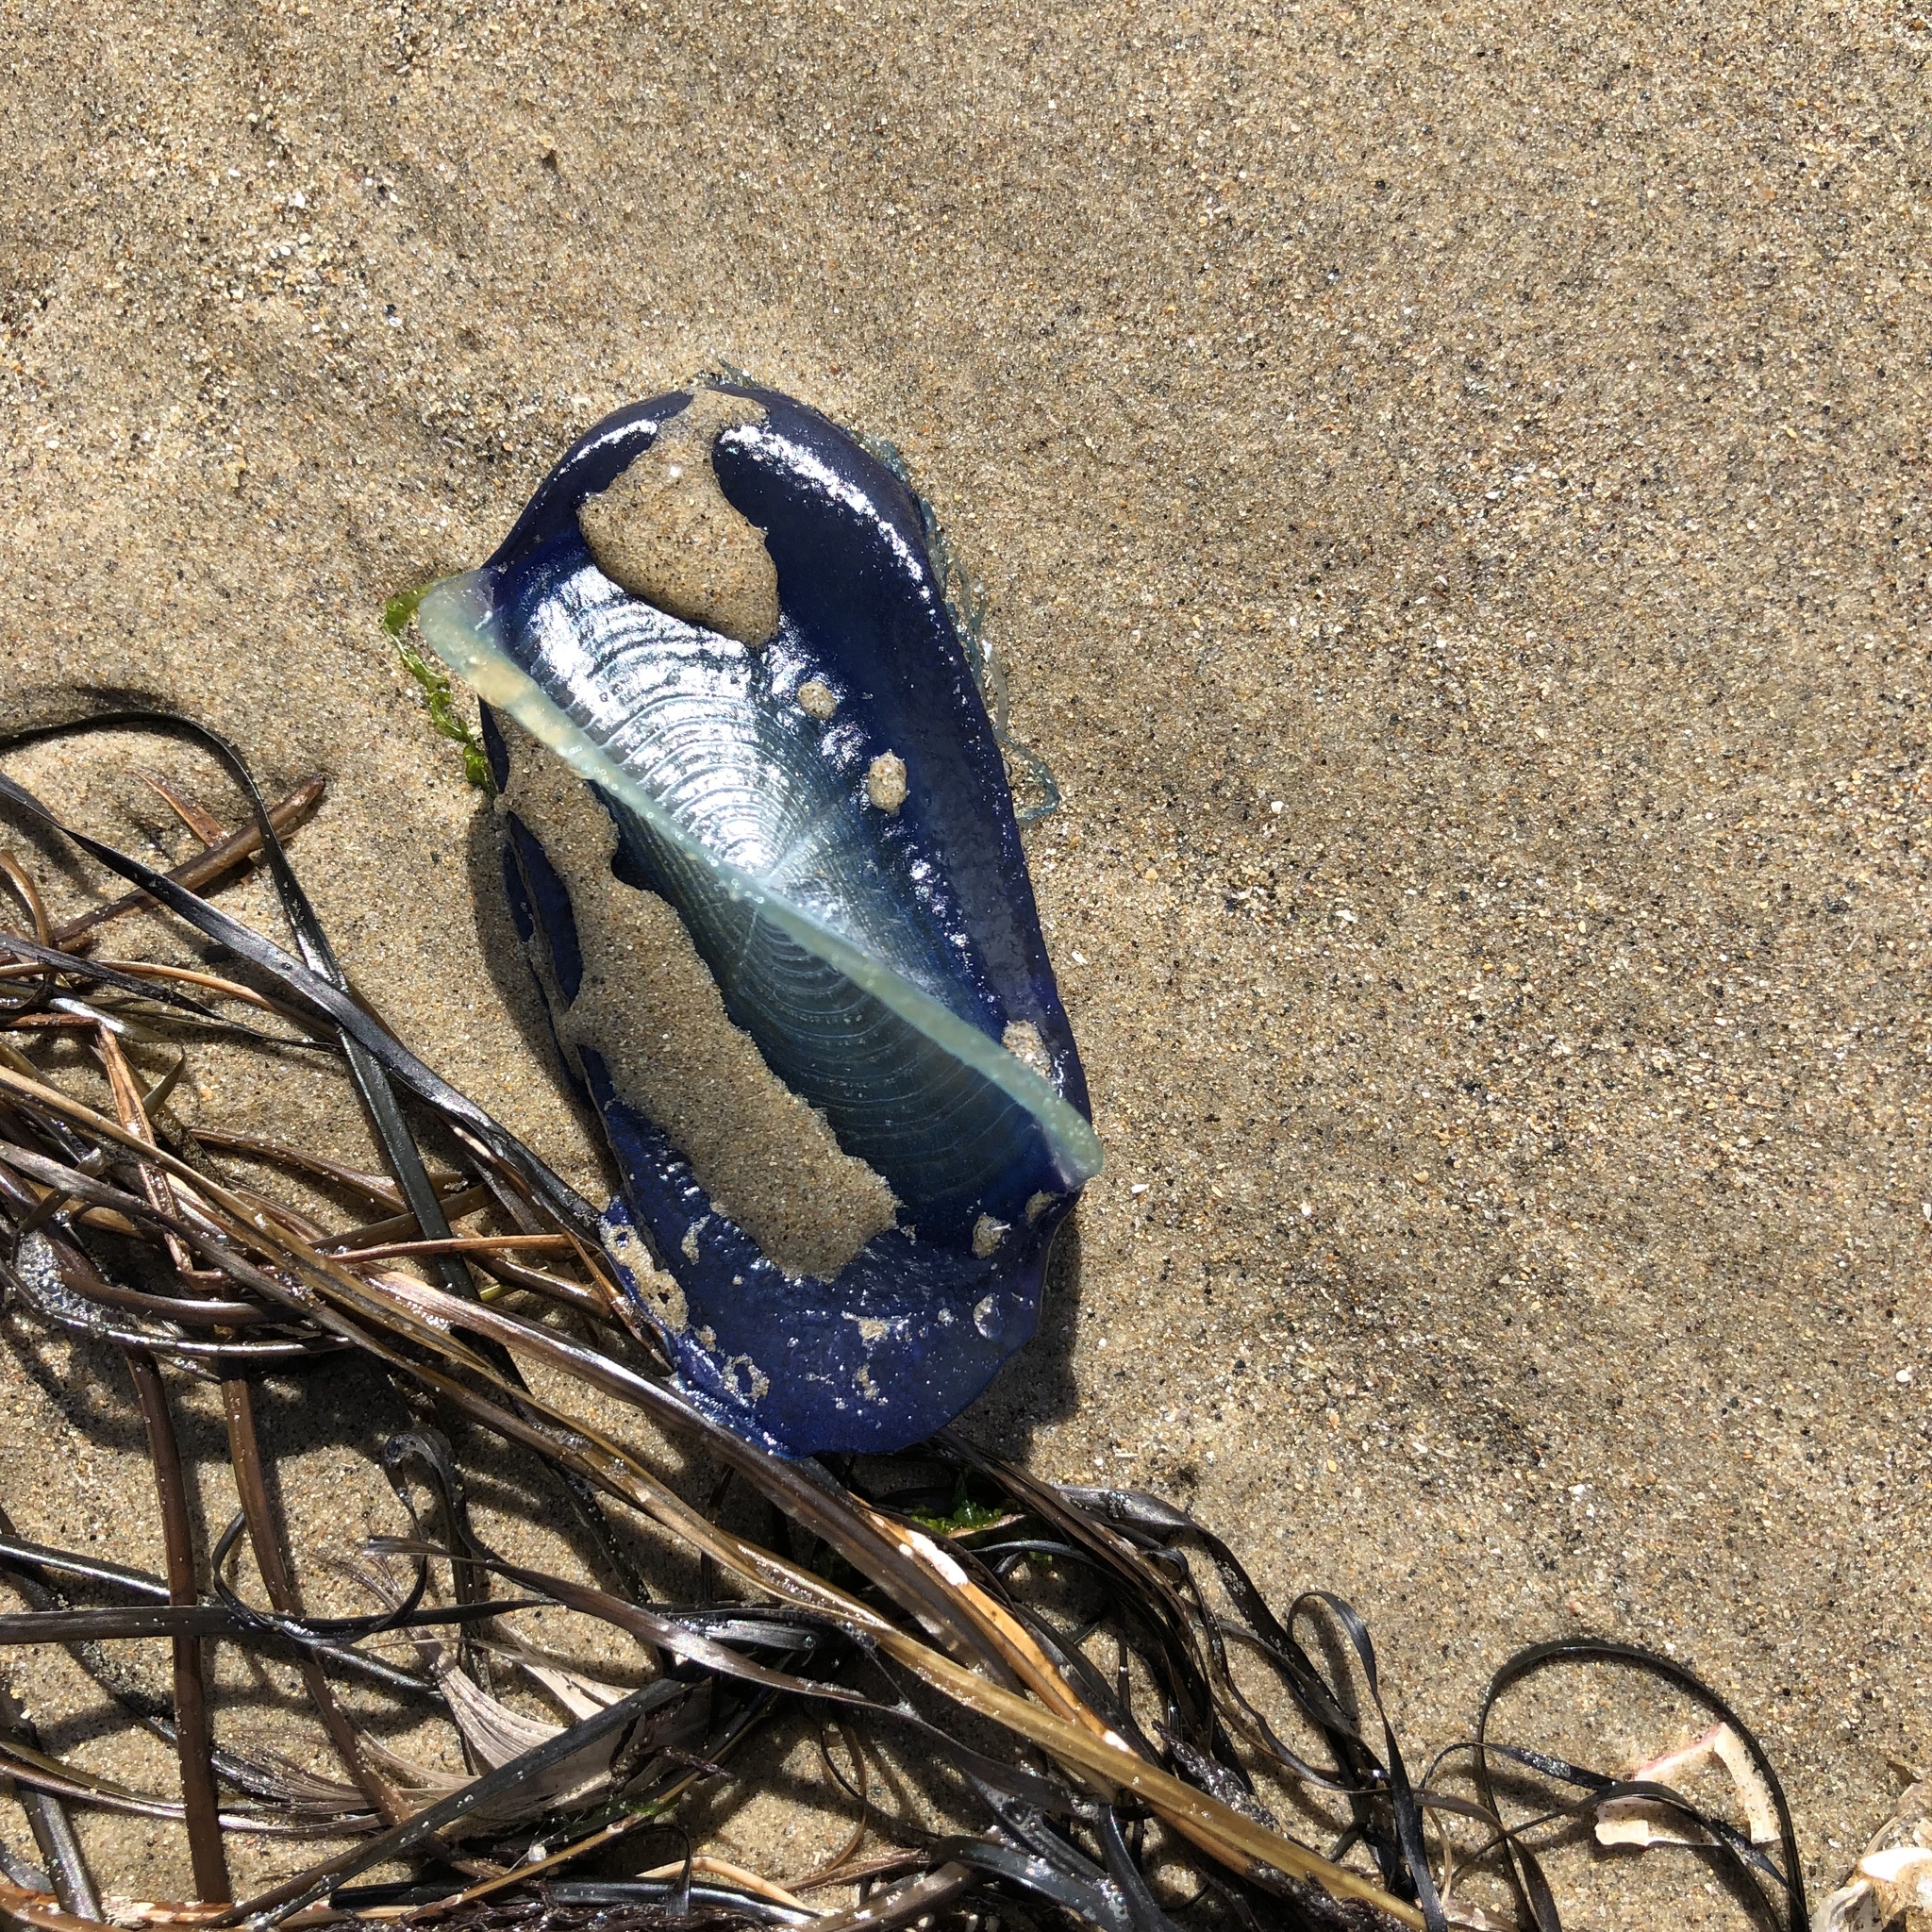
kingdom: Animalia
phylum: Cnidaria
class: Hydrozoa
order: Anthoathecata
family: Porpitidae
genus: Velella
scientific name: Velella velella
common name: By-the-wind-sailor
